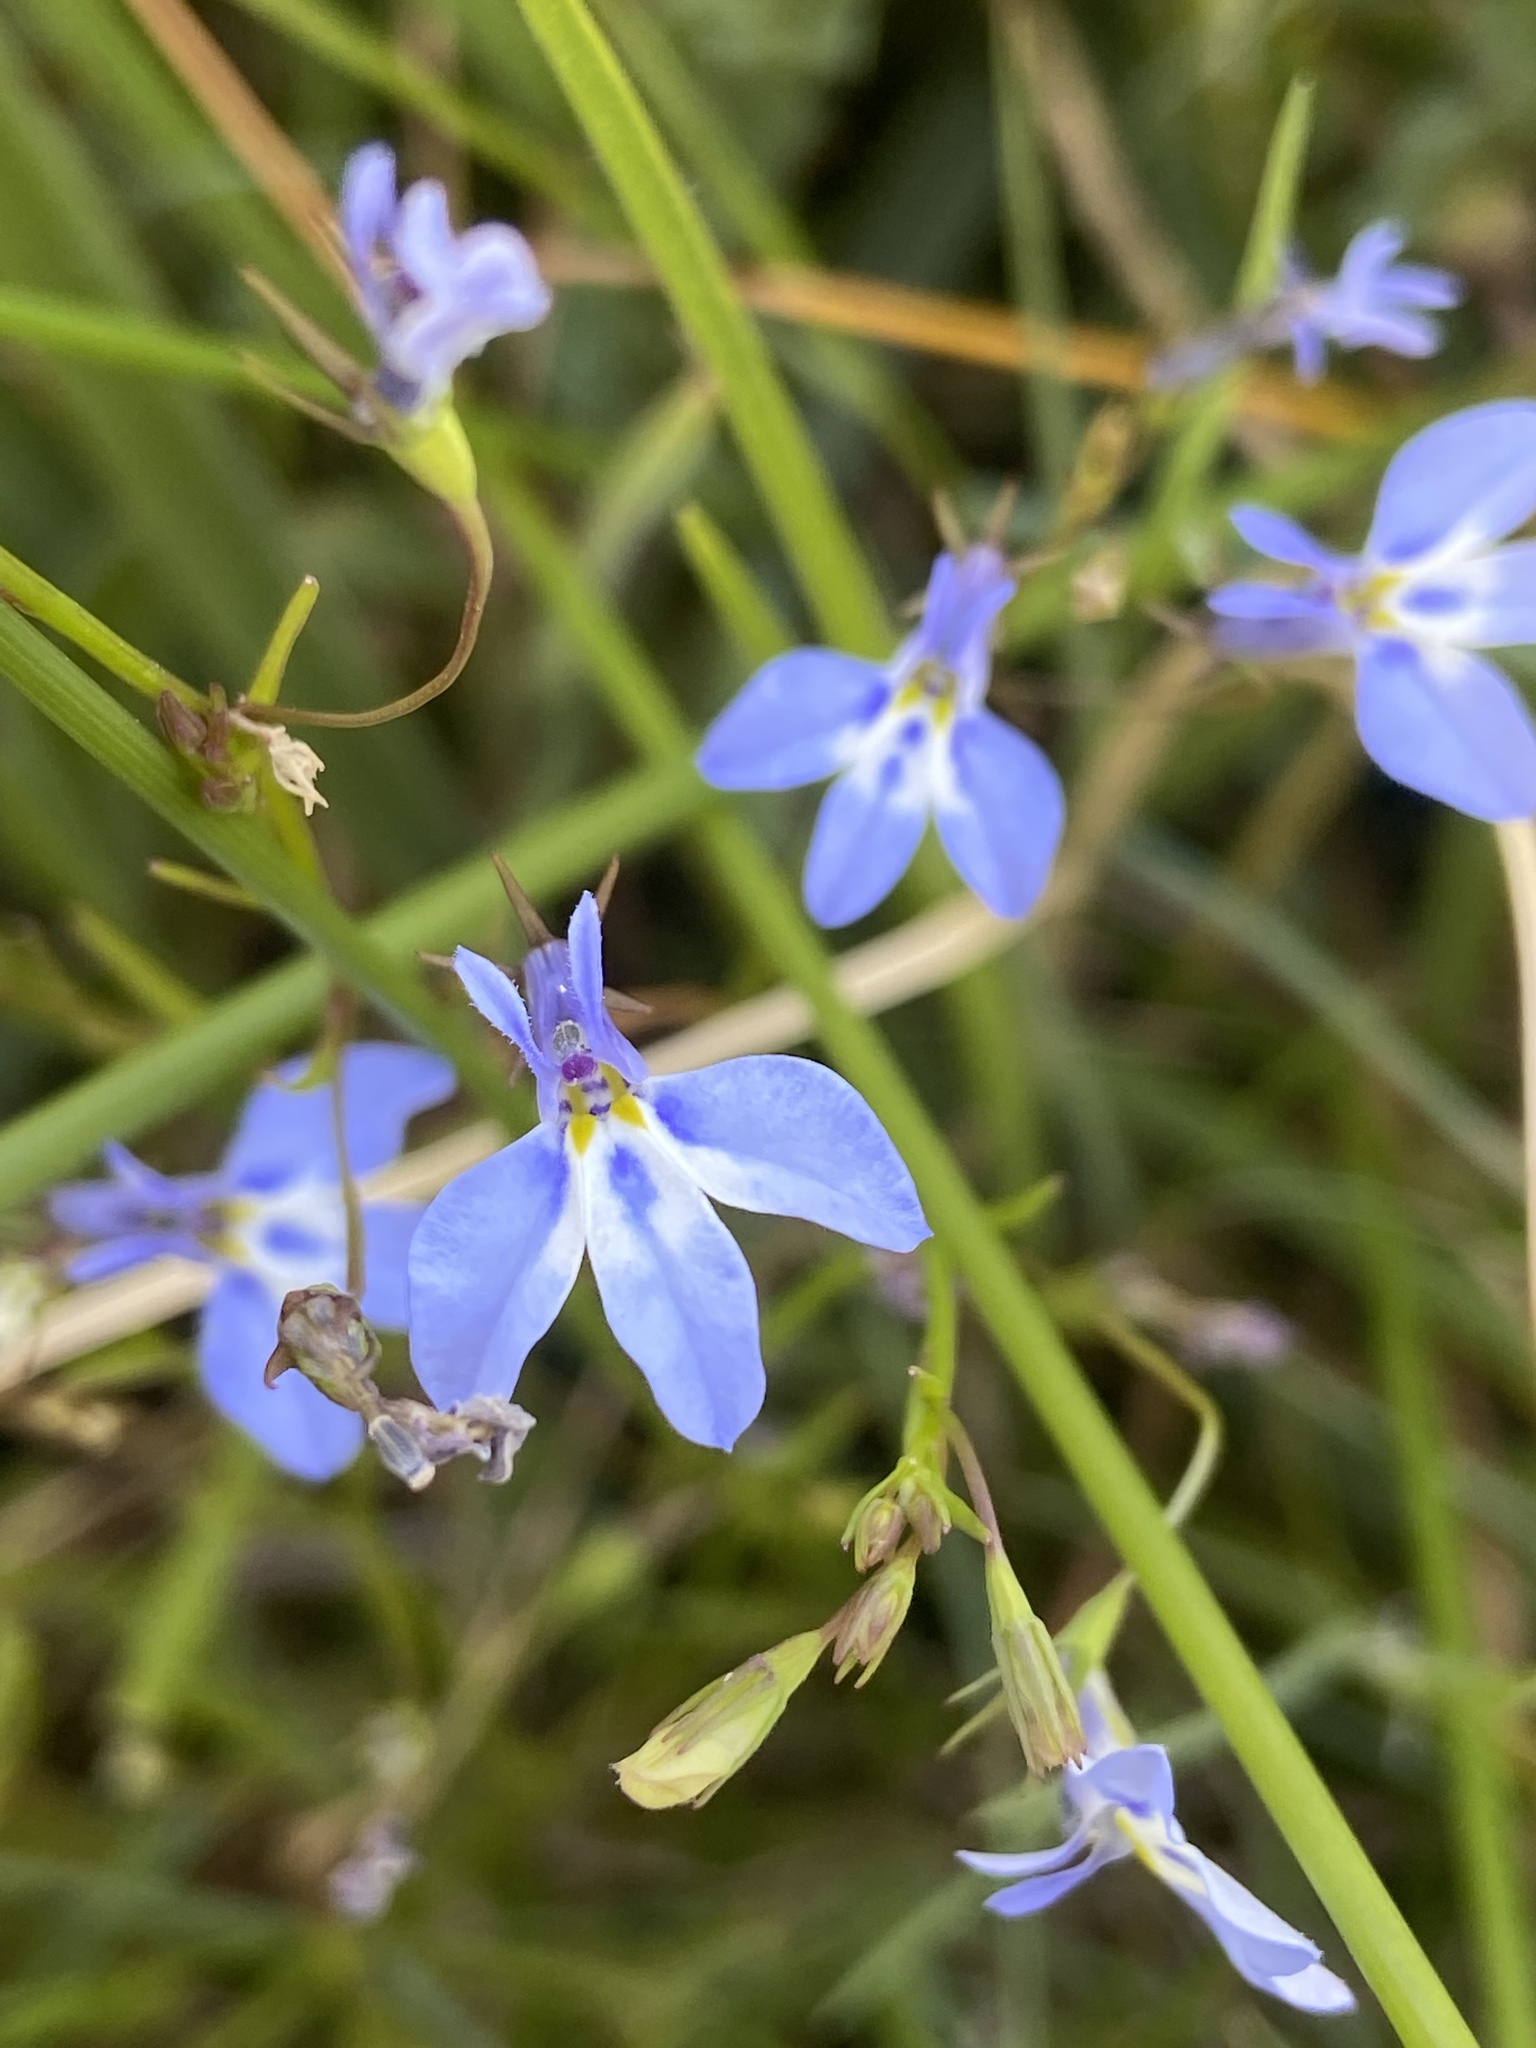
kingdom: Plantae
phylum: Tracheophyta
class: Magnoliopsida
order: Asterales
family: Campanulaceae
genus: Lobelia
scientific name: Lobelia erinus
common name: Edging lobelia
